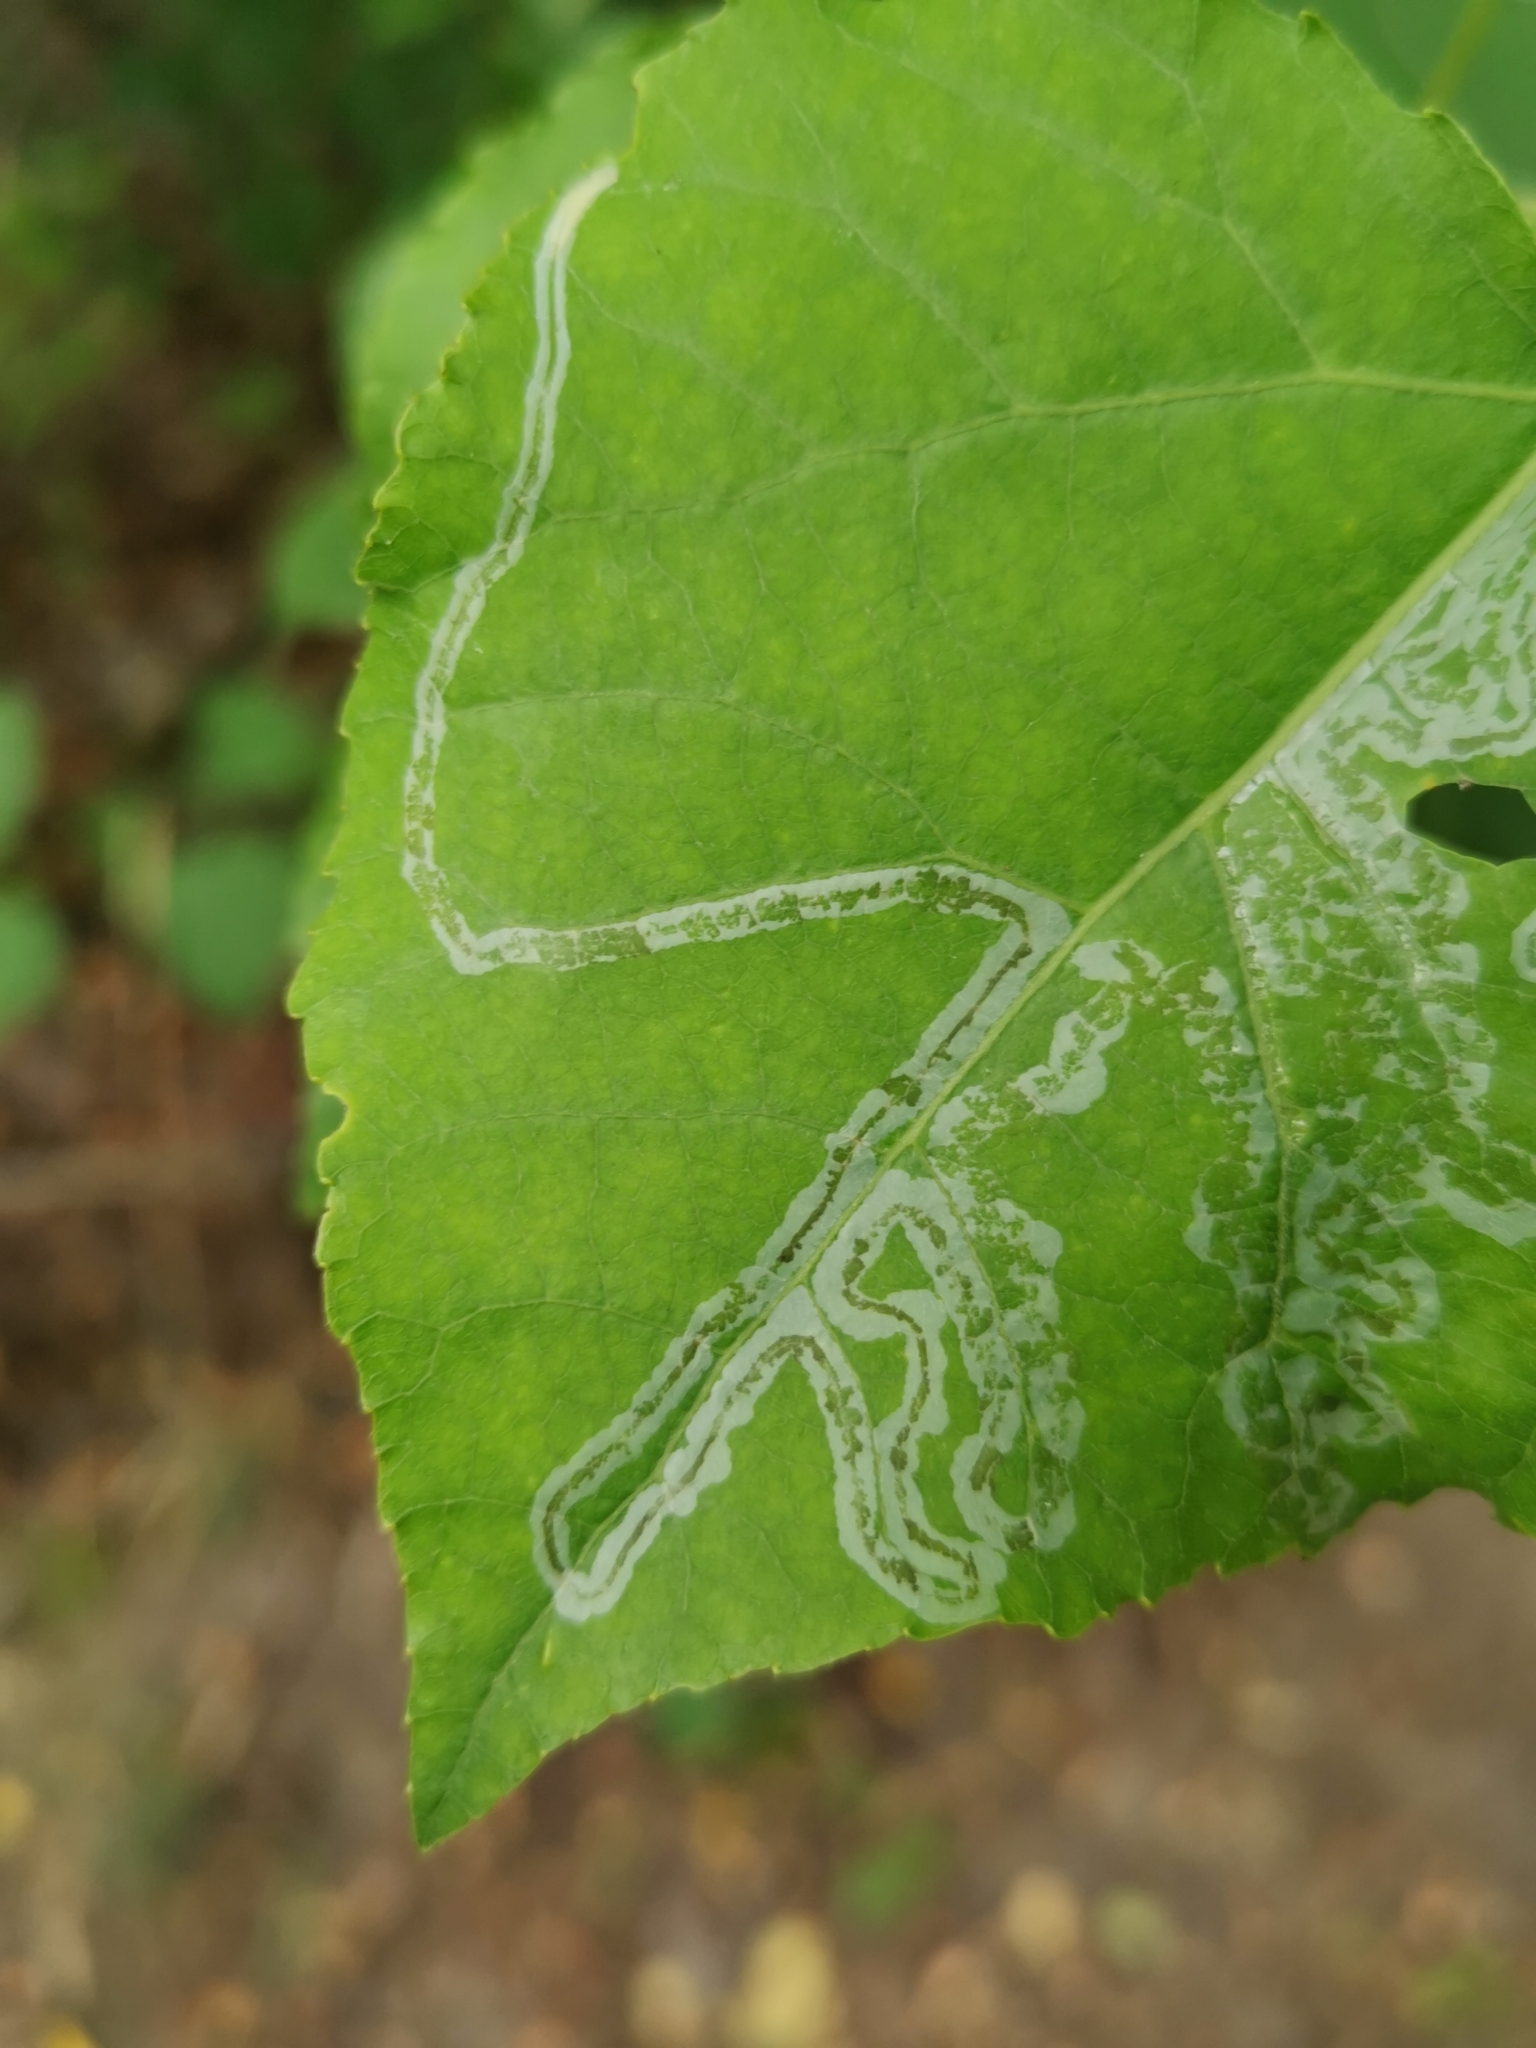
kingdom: Animalia
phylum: Arthropoda
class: Insecta
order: Lepidoptera
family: Gracillariidae
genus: Phyllocnistis
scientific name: Phyllocnistis xenia
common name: Kent bent-wing
